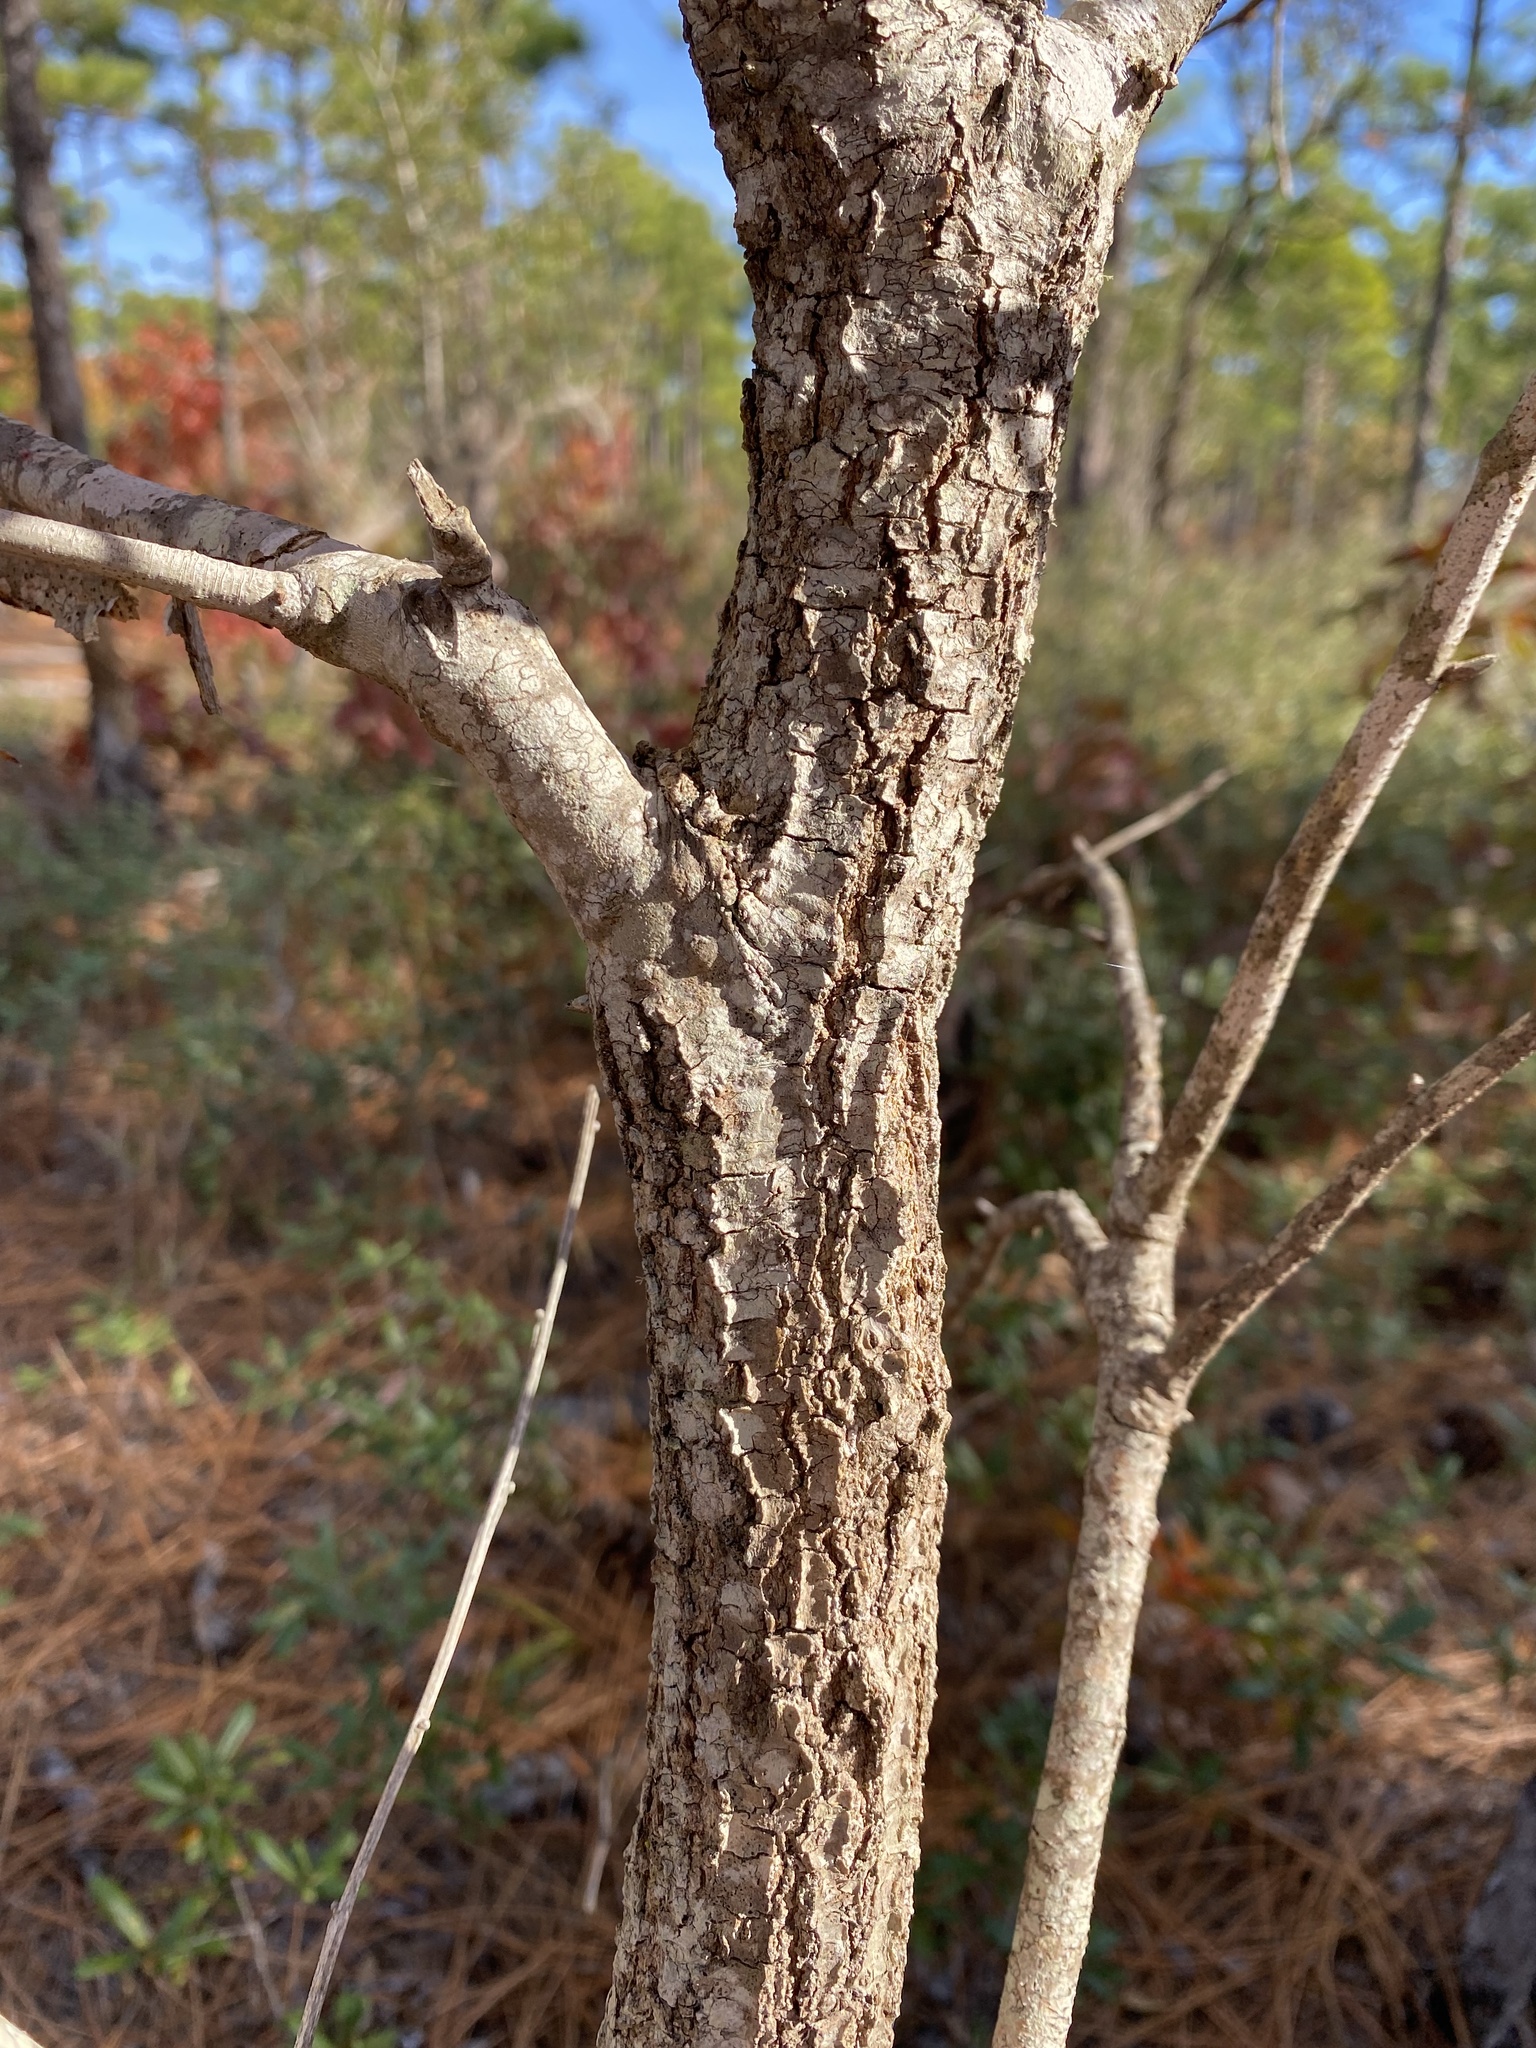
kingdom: Plantae
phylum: Tracheophyta
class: Magnoliopsida
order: Fagales
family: Fagaceae
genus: Quercus
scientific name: Quercus laevis
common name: Turkey oak
